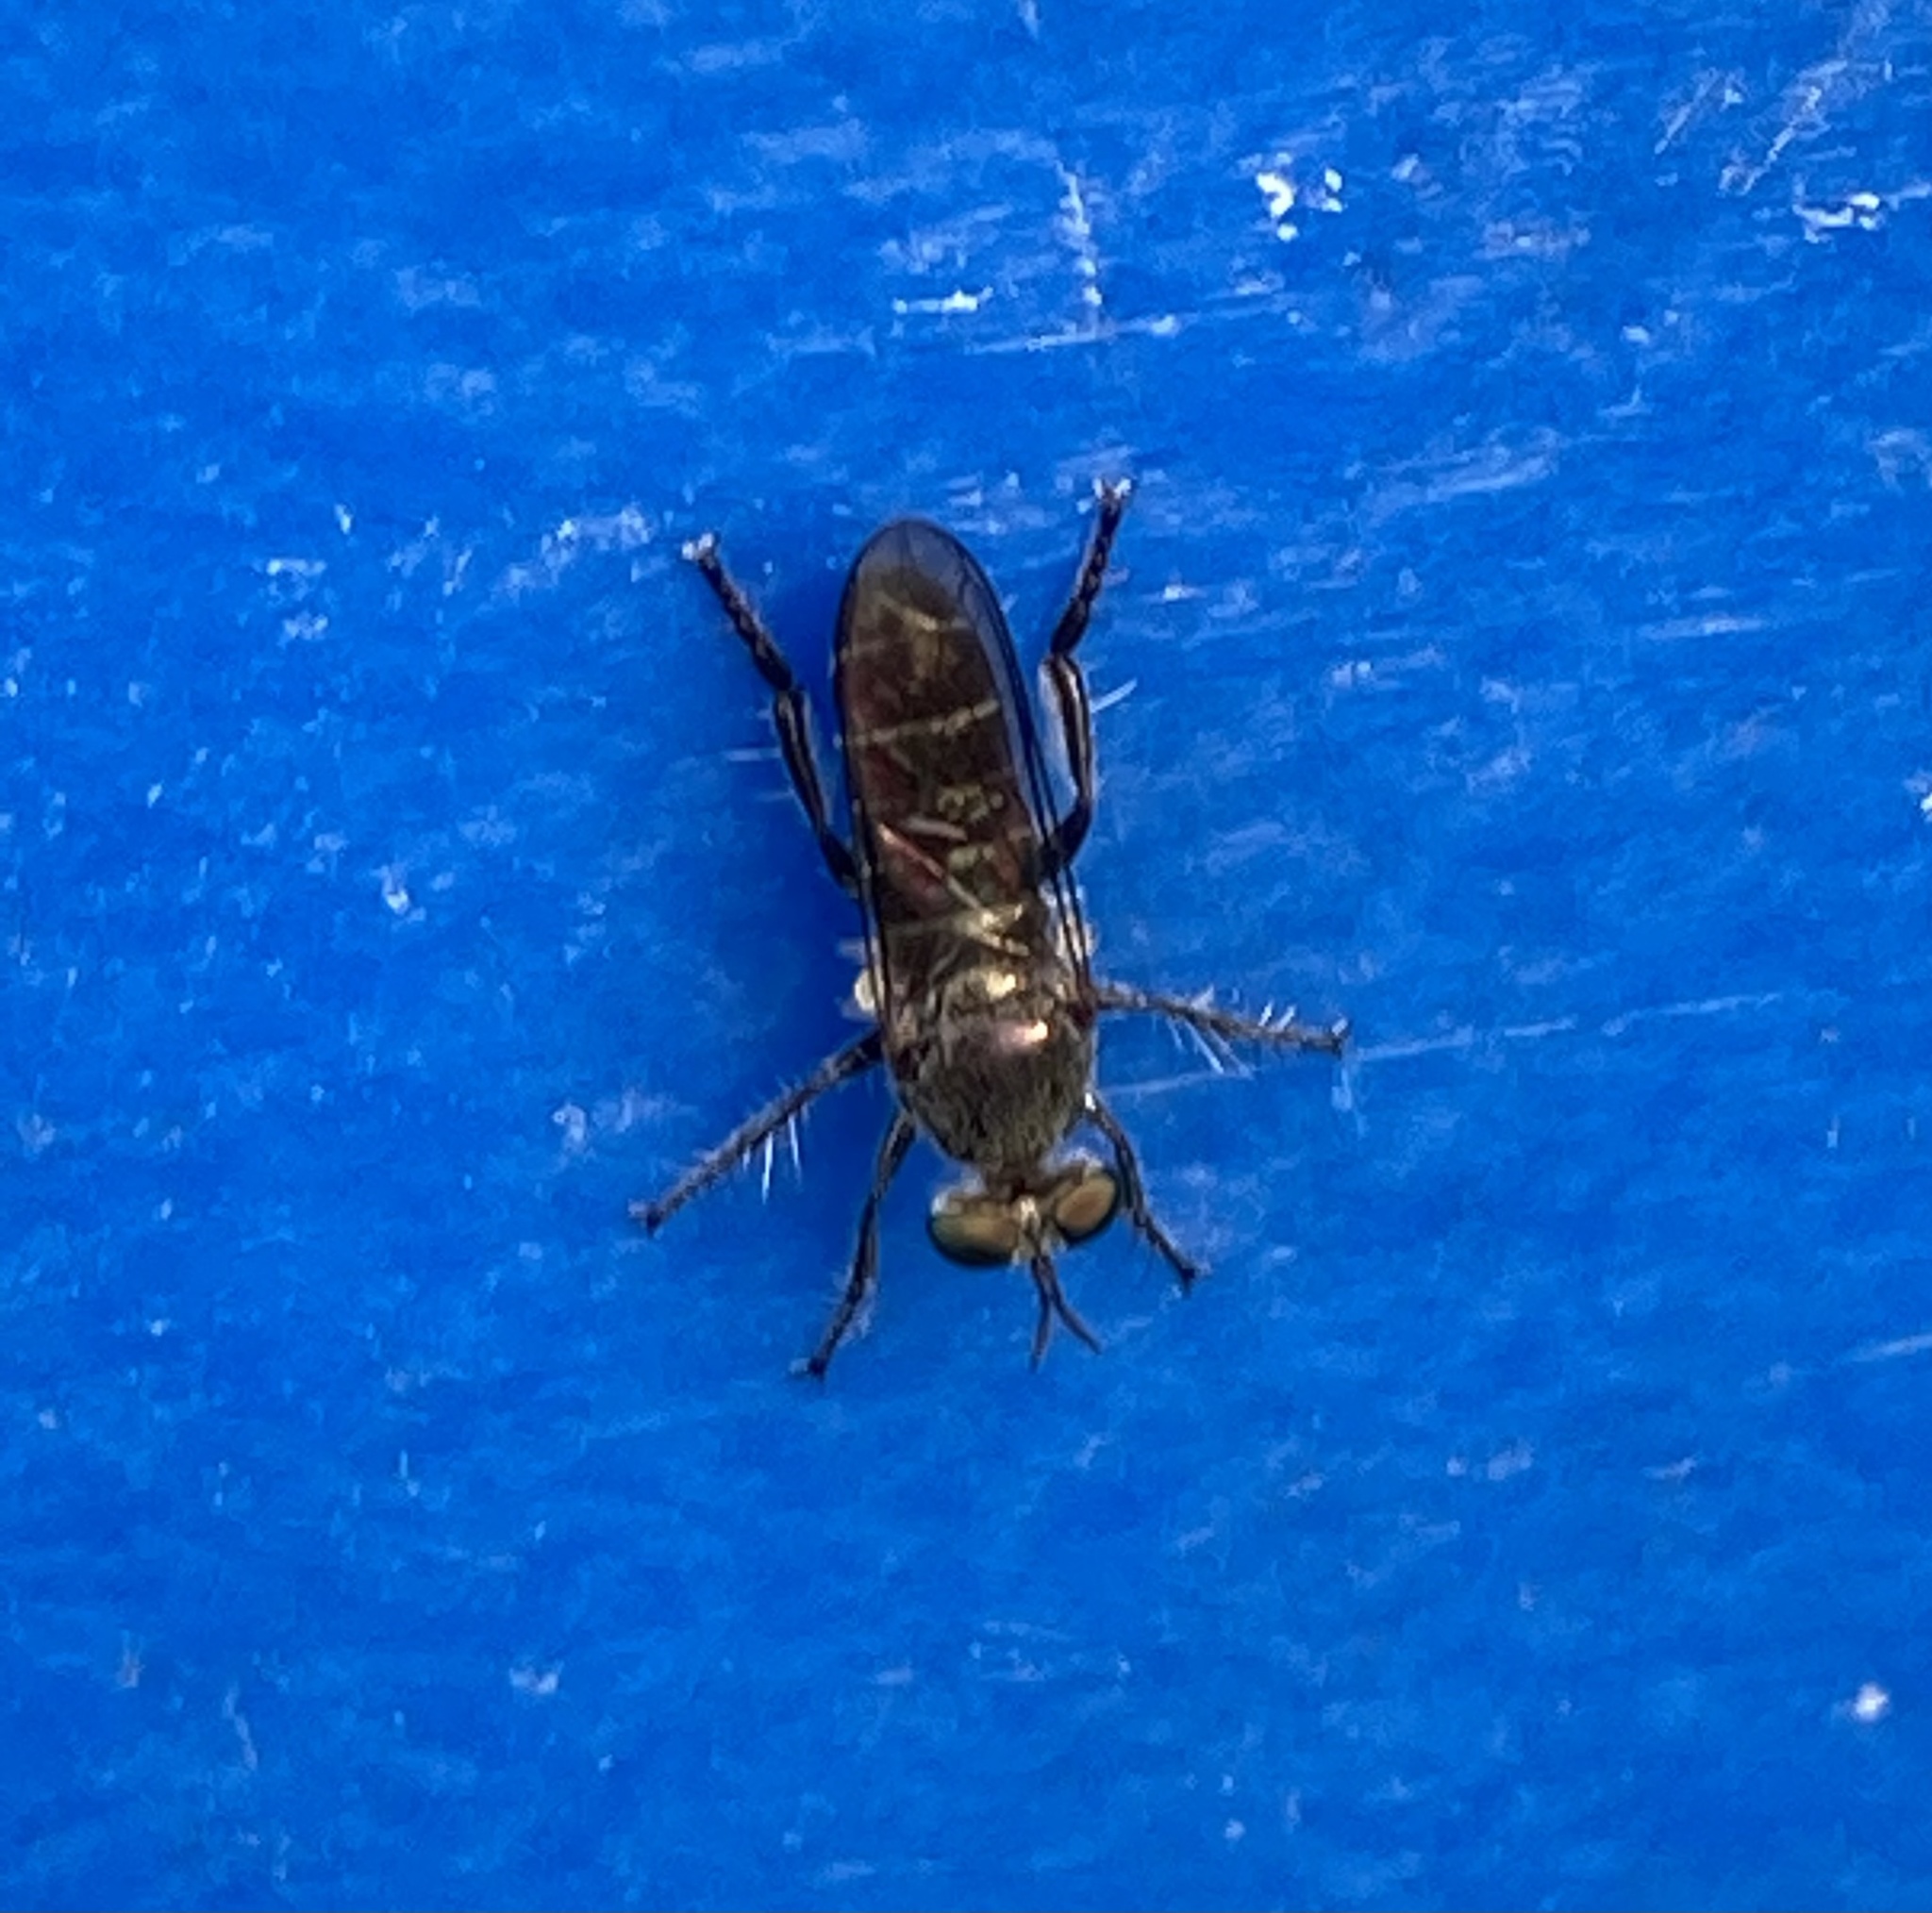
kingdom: Animalia
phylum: Arthropoda
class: Insecta
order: Diptera
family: Asilidae
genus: Atomosia
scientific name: Atomosia puella
